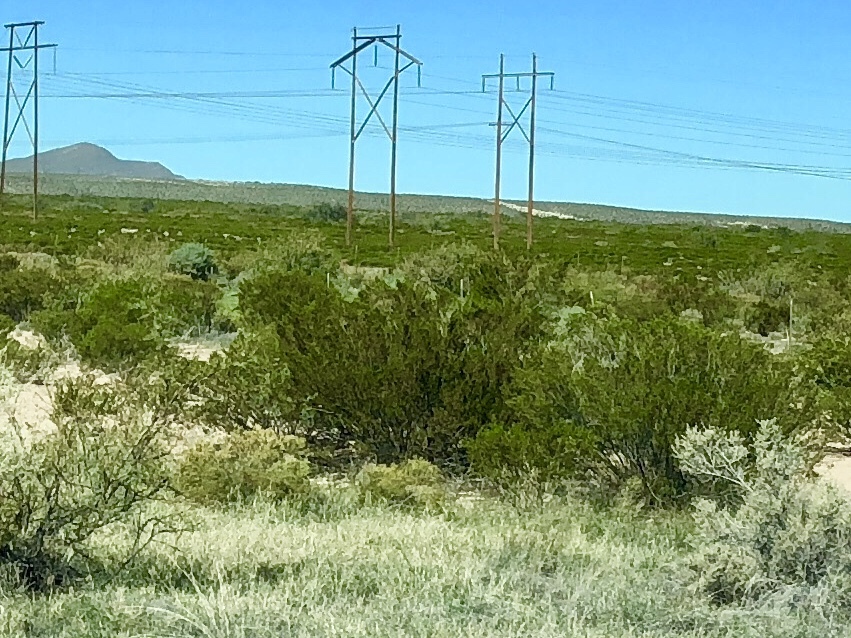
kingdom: Plantae
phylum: Tracheophyta
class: Magnoliopsida
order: Zygophyllales
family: Zygophyllaceae
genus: Larrea
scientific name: Larrea tridentata
